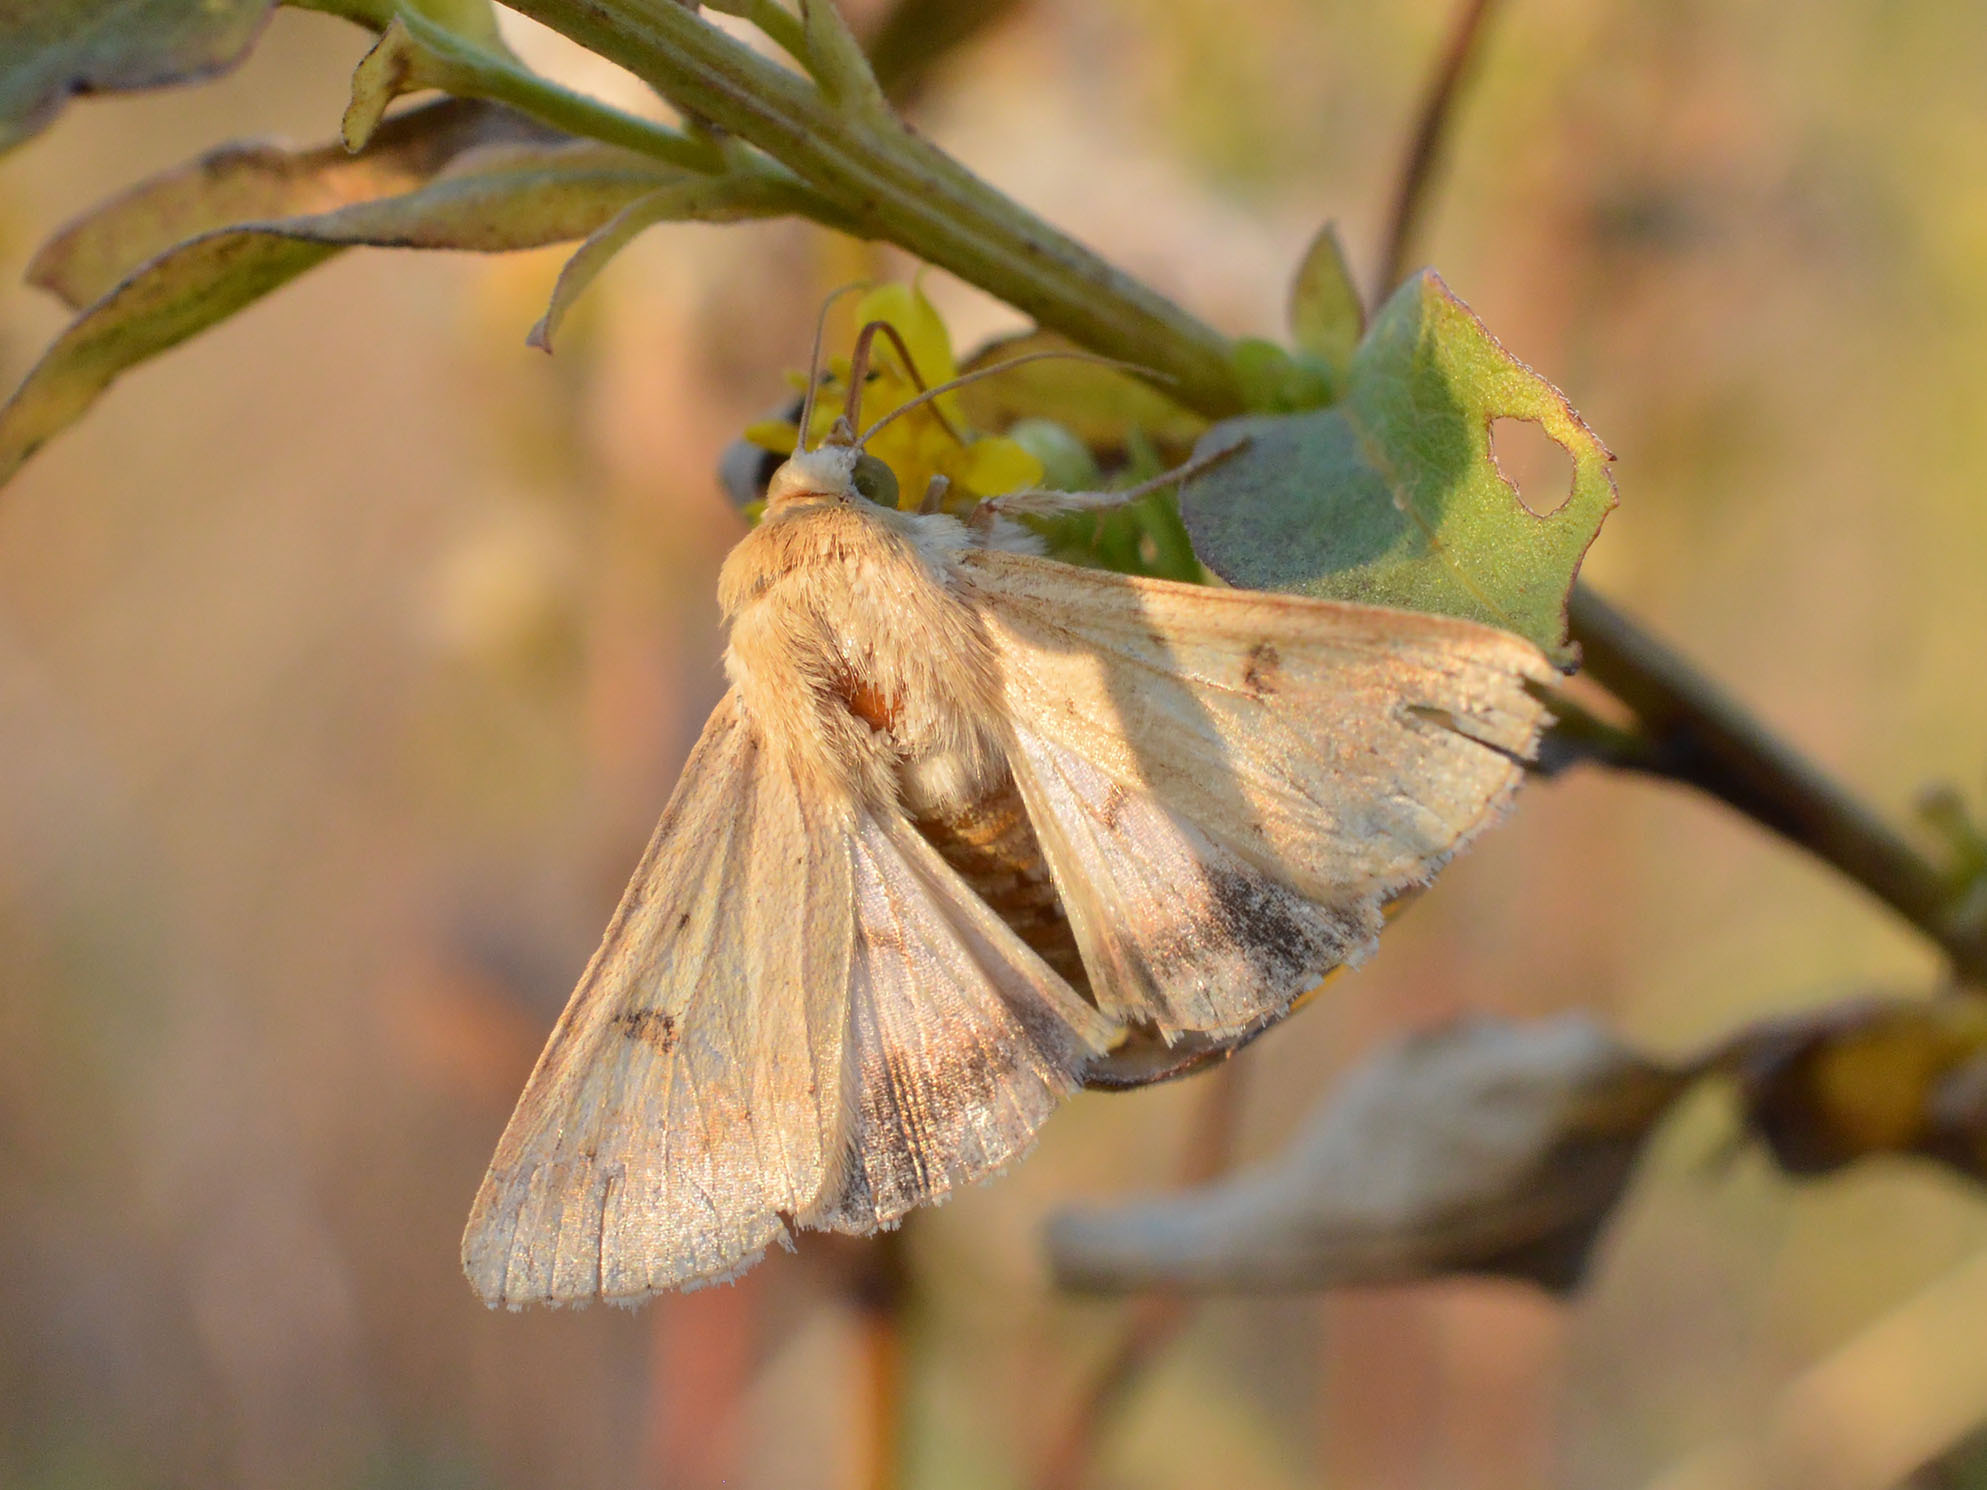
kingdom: Animalia
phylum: Arthropoda
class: Insecta
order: Lepidoptera
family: Noctuidae
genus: Helicoverpa
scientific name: Helicoverpa armigera
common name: Cotton bollworm
